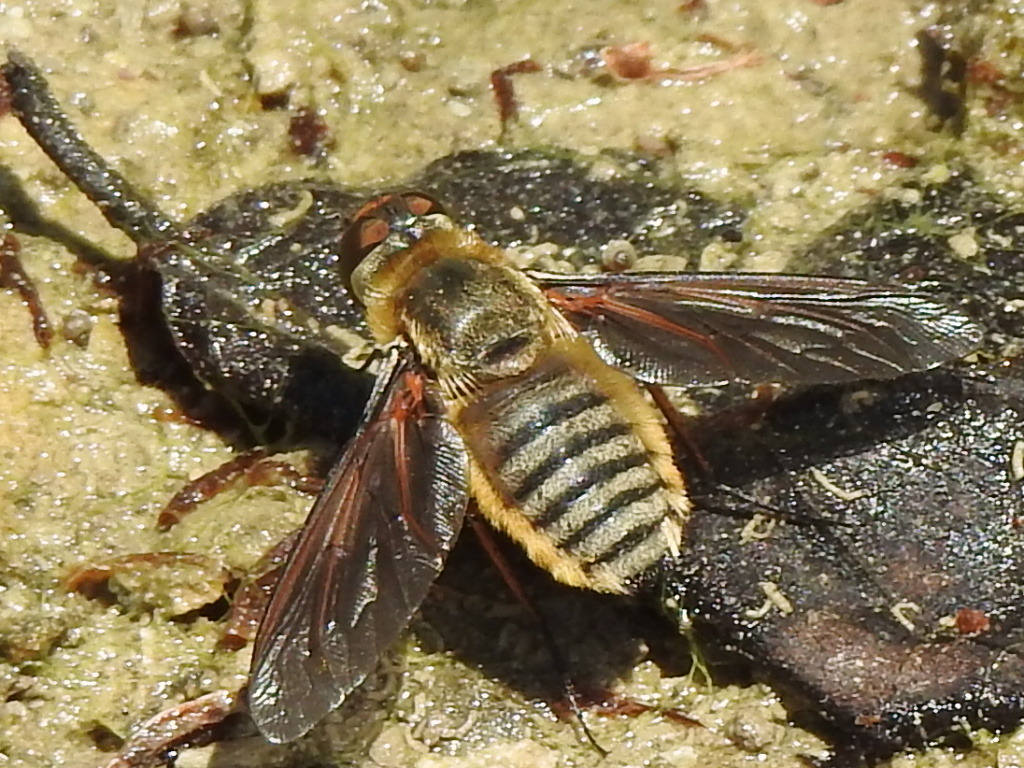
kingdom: Animalia
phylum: Arthropoda
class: Insecta
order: Diptera
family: Bombyliidae
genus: Poecilanthrax
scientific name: Poecilanthrax lucifer
